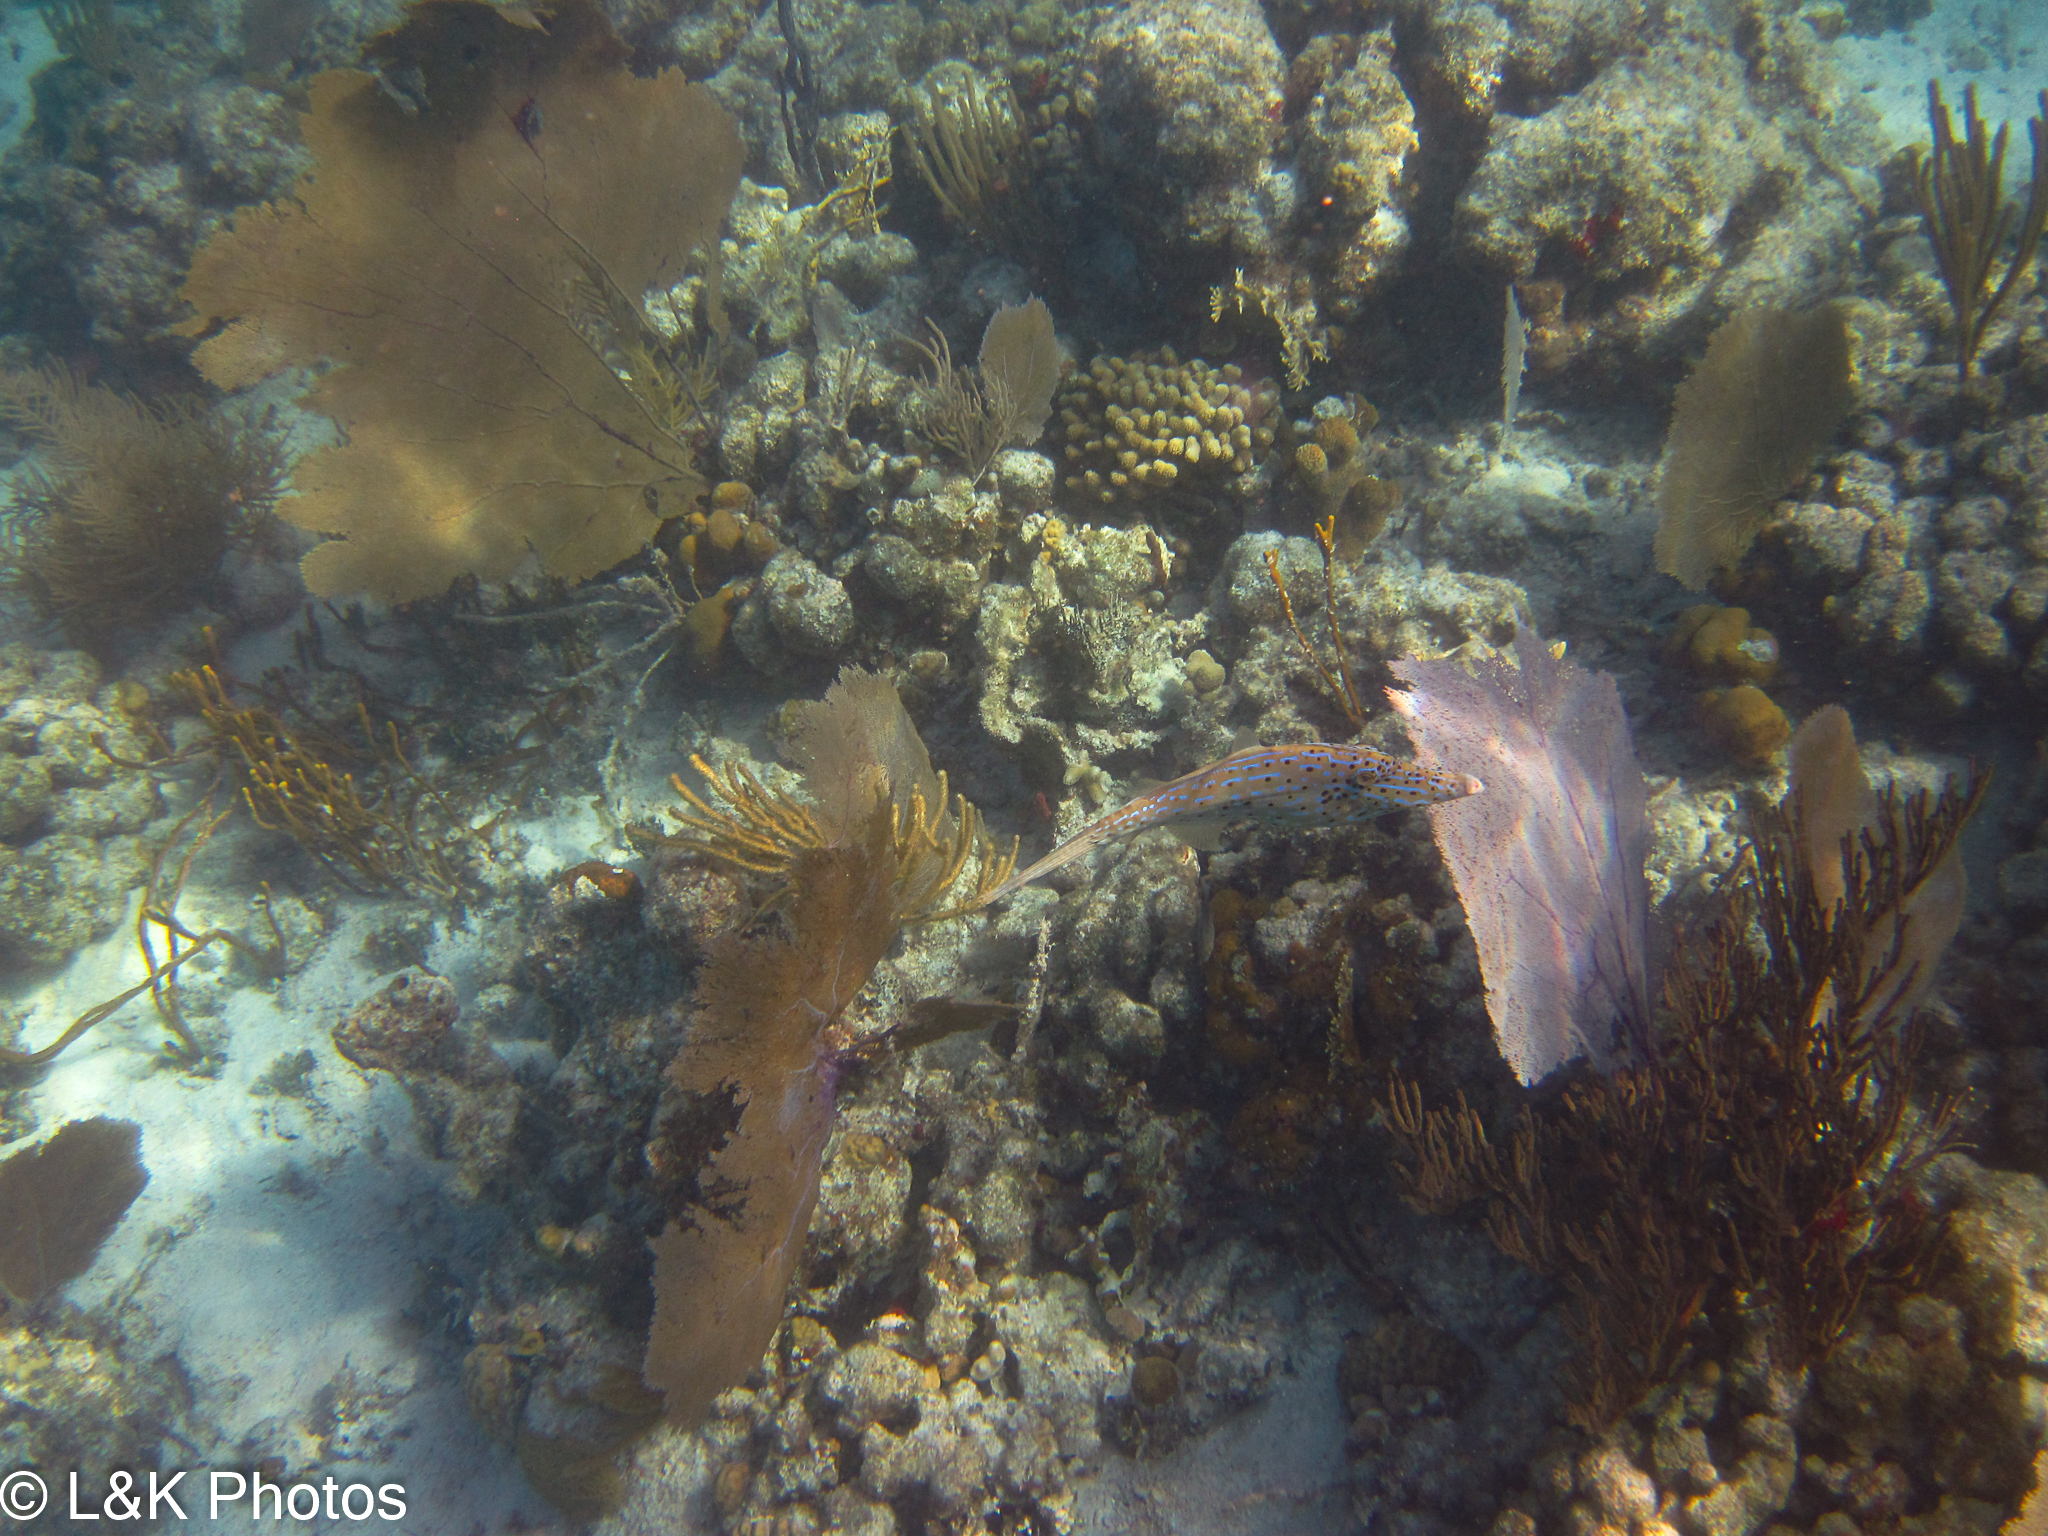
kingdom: Animalia
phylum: Chordata
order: Tetraodontiformes
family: Monacanthidae
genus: Aluterus
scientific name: Aluterus scriptus
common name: Scribbled leatherjacket filefish
